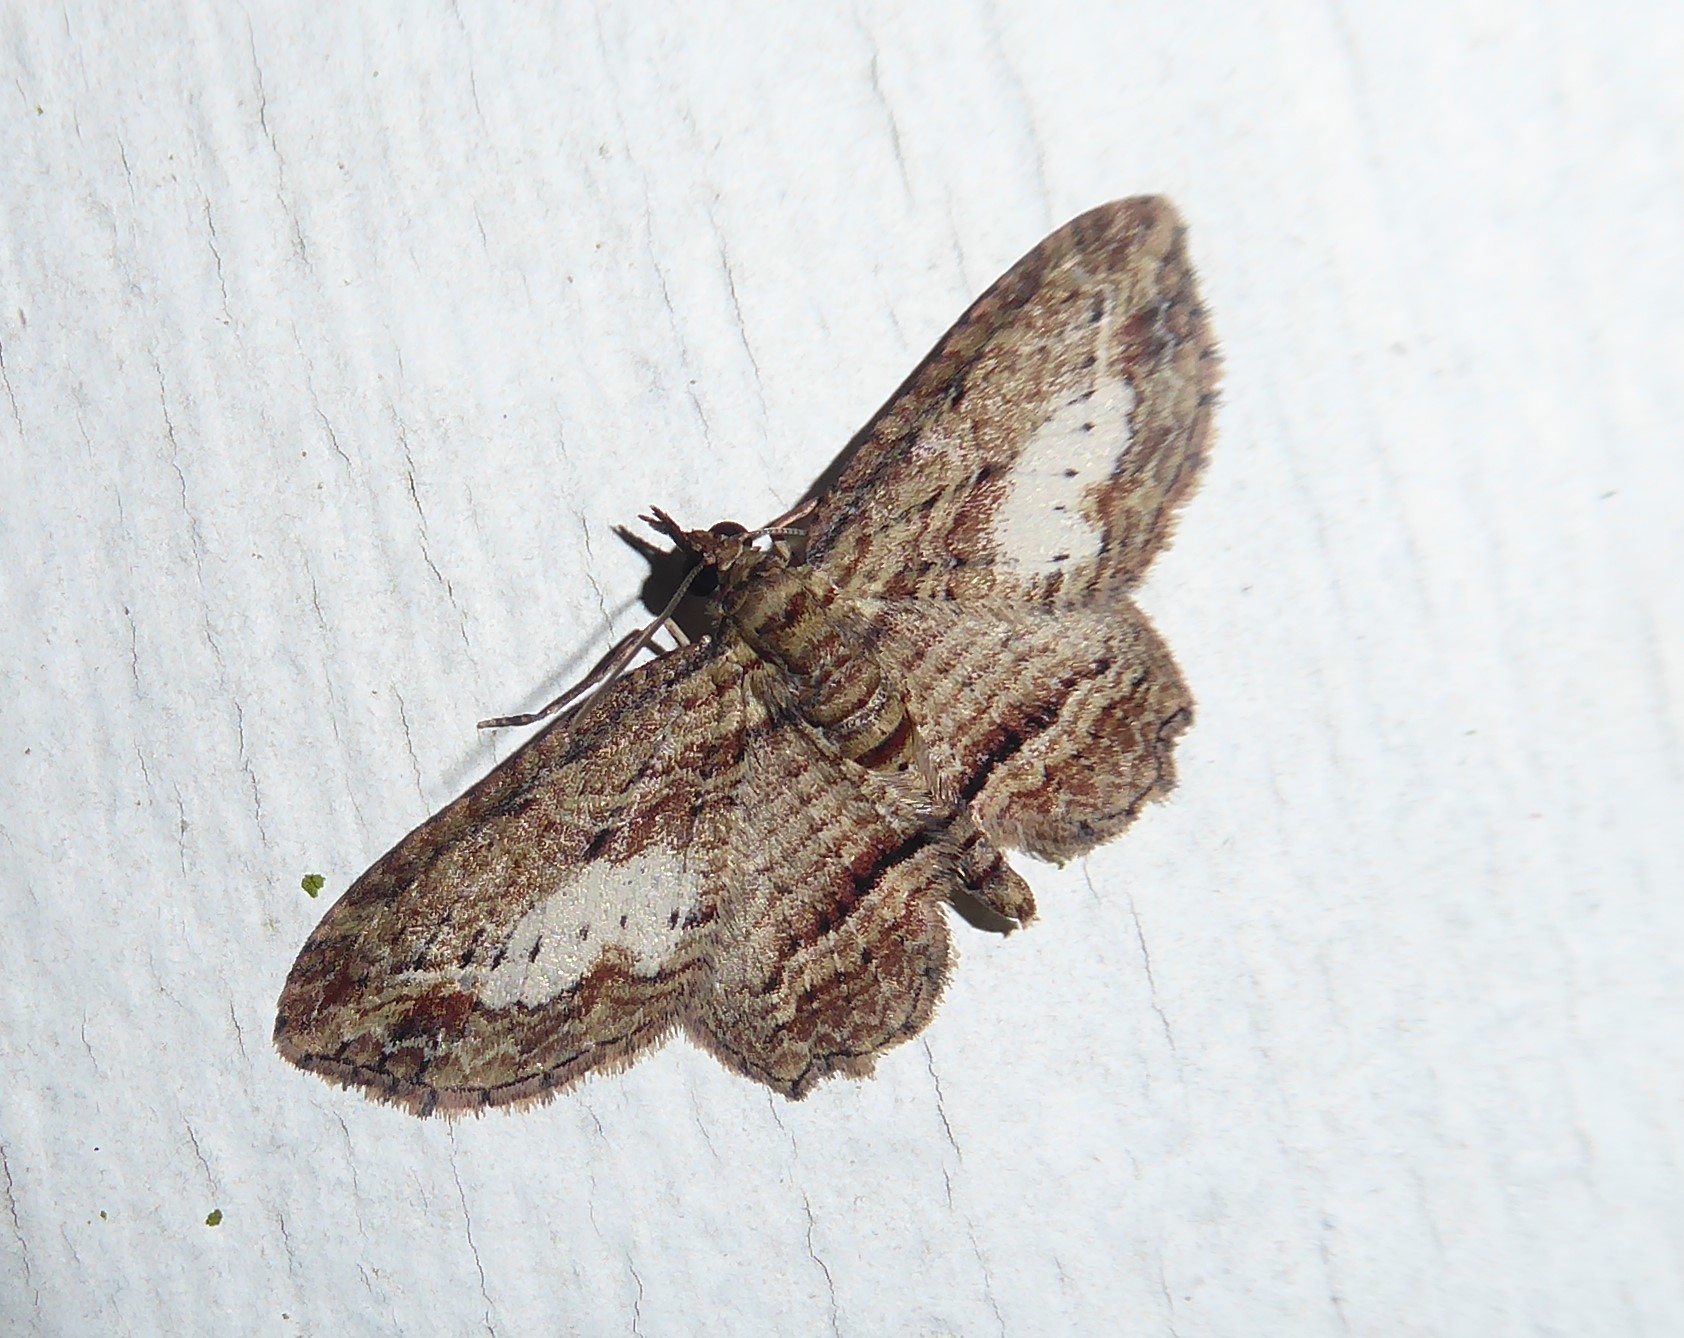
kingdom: Animalia
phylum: Arthropoda
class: Insecta
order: Lepidoptera
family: Geometridae
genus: Chloroclystis
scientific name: Chloroclystis filata
